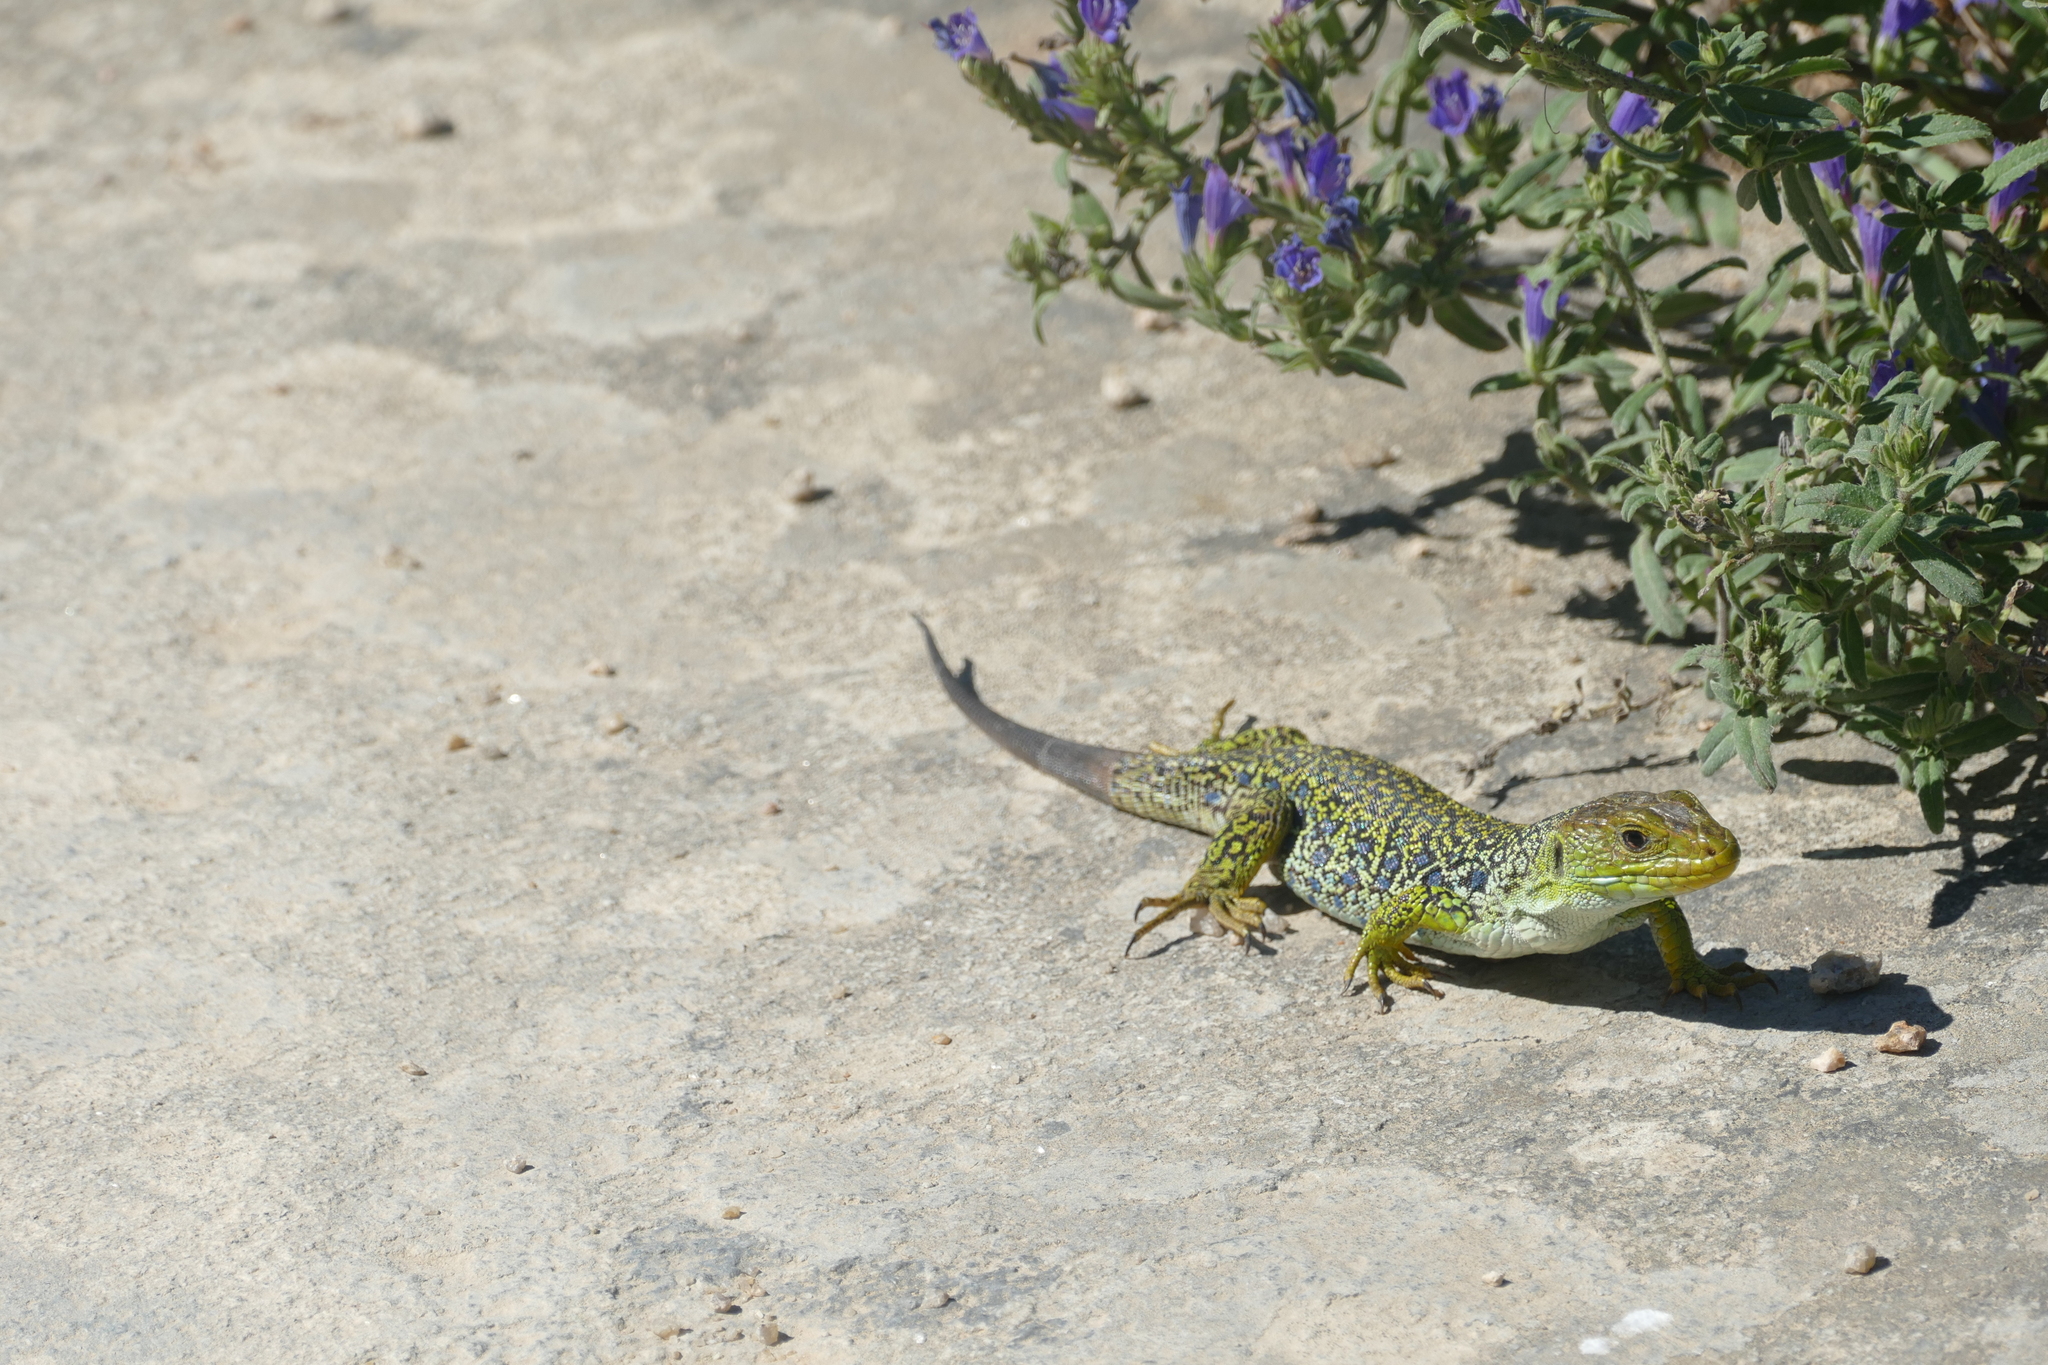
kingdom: Animalia
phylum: Chordata
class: Squamata
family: Lacertidae
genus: Timon
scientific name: Timon lepidus
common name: Ocellated lizard
